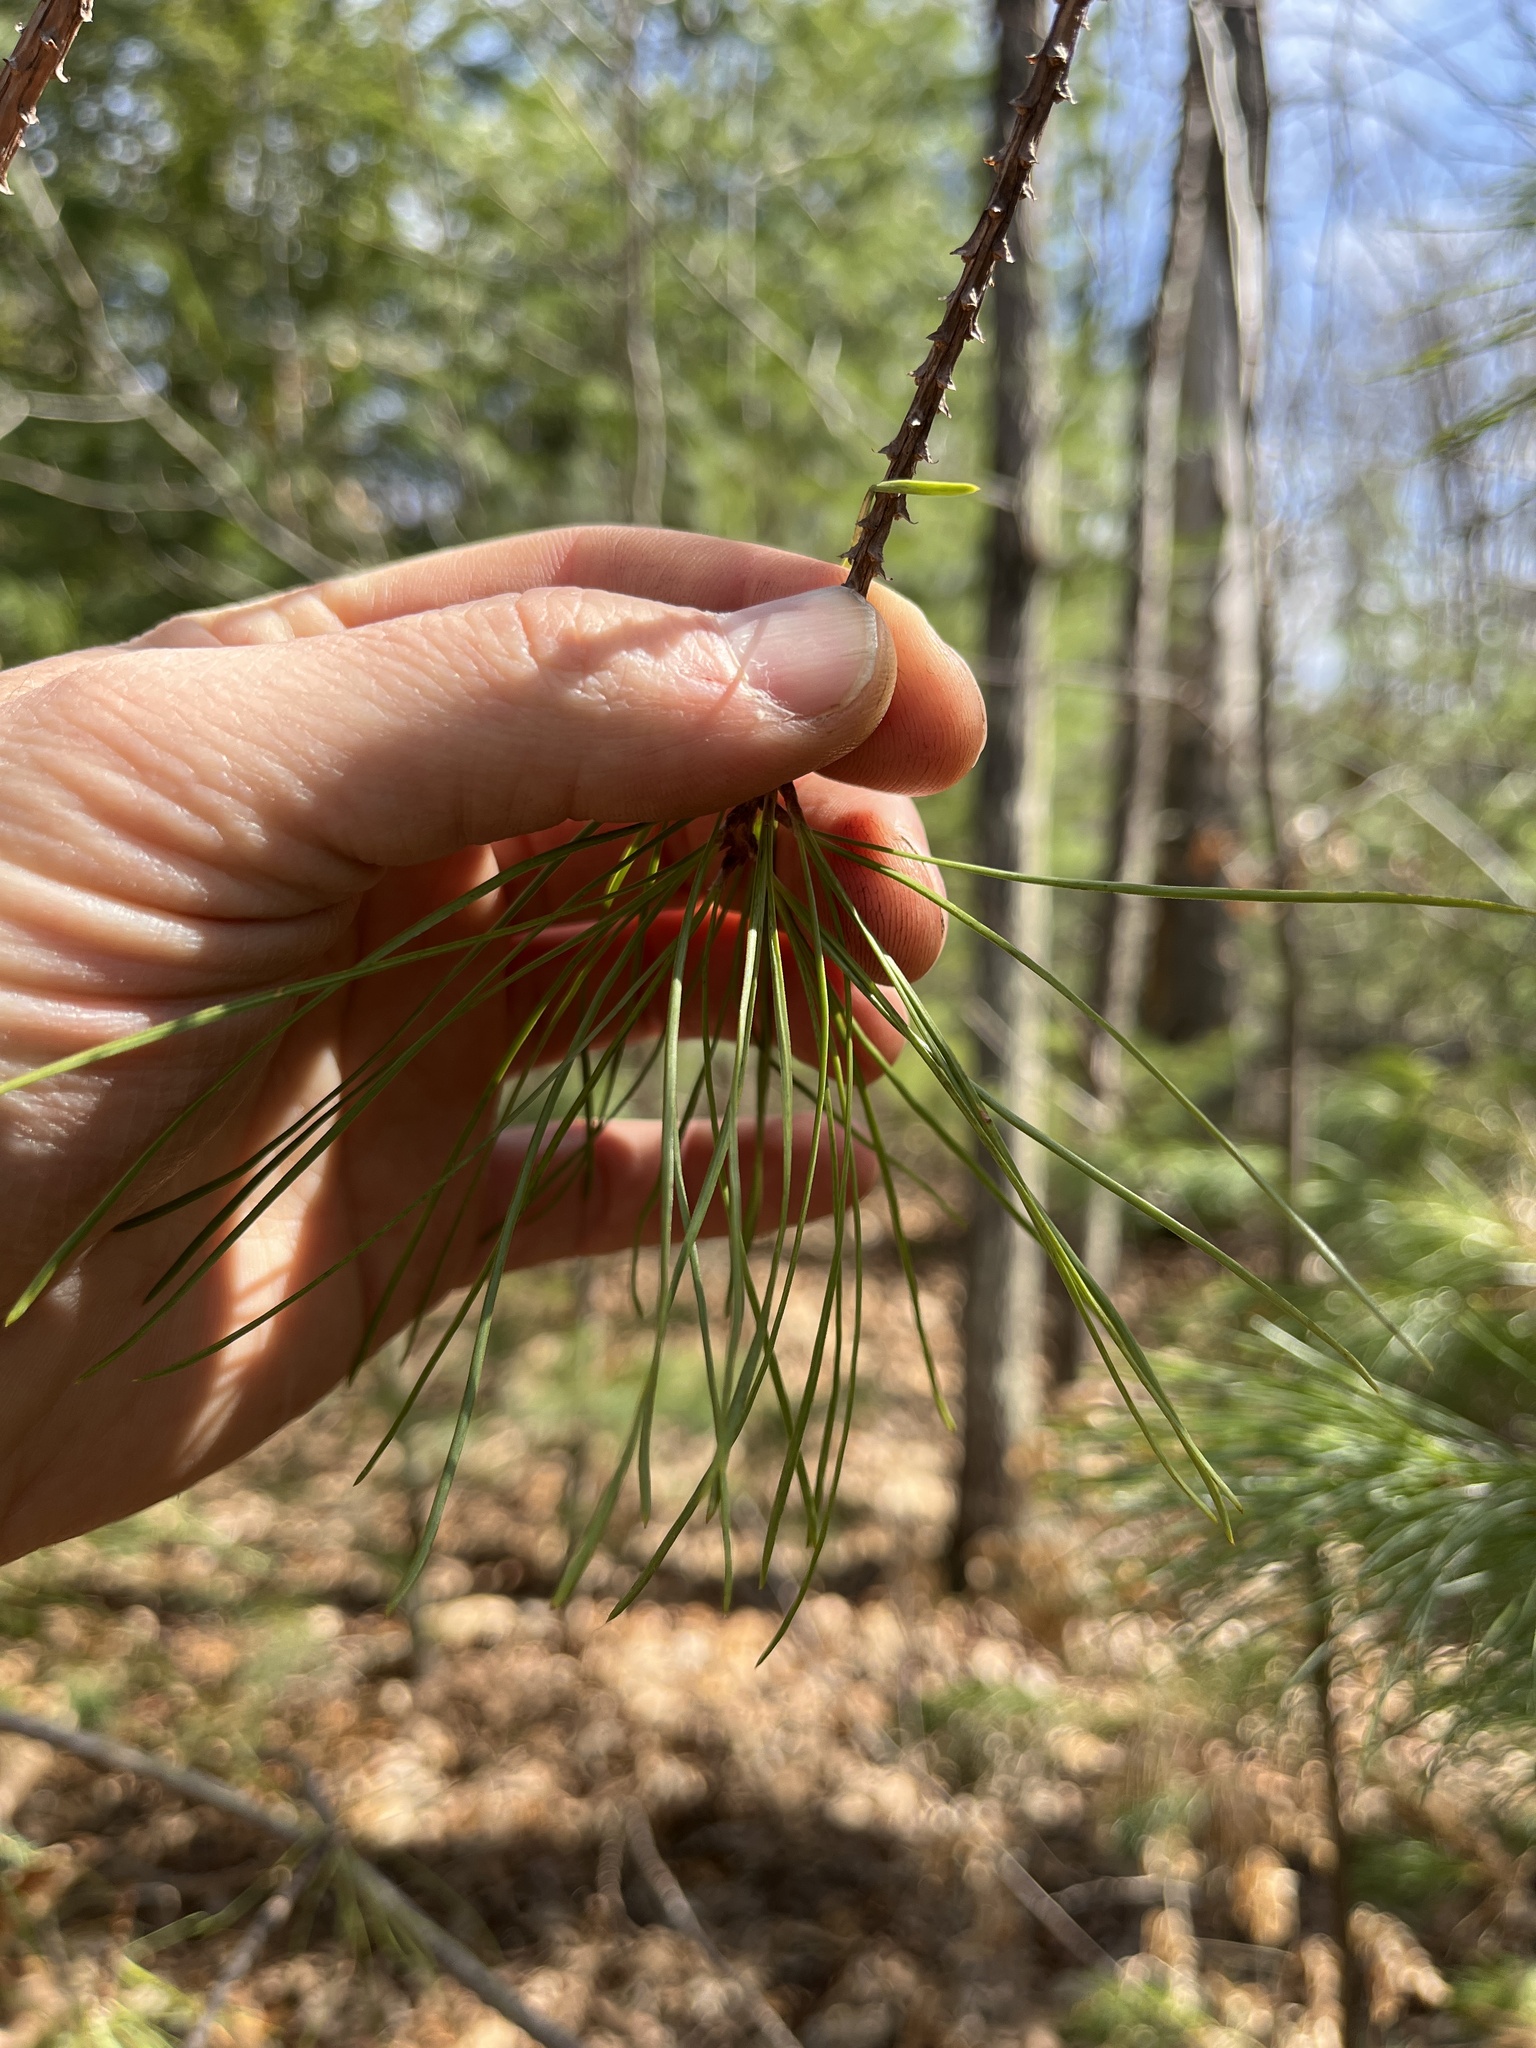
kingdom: Plantae
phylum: Tracheophyta
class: Pinopsida
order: Pinales
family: Pinaceae
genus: Pinus
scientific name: Pinus rigida
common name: Pitch pine
